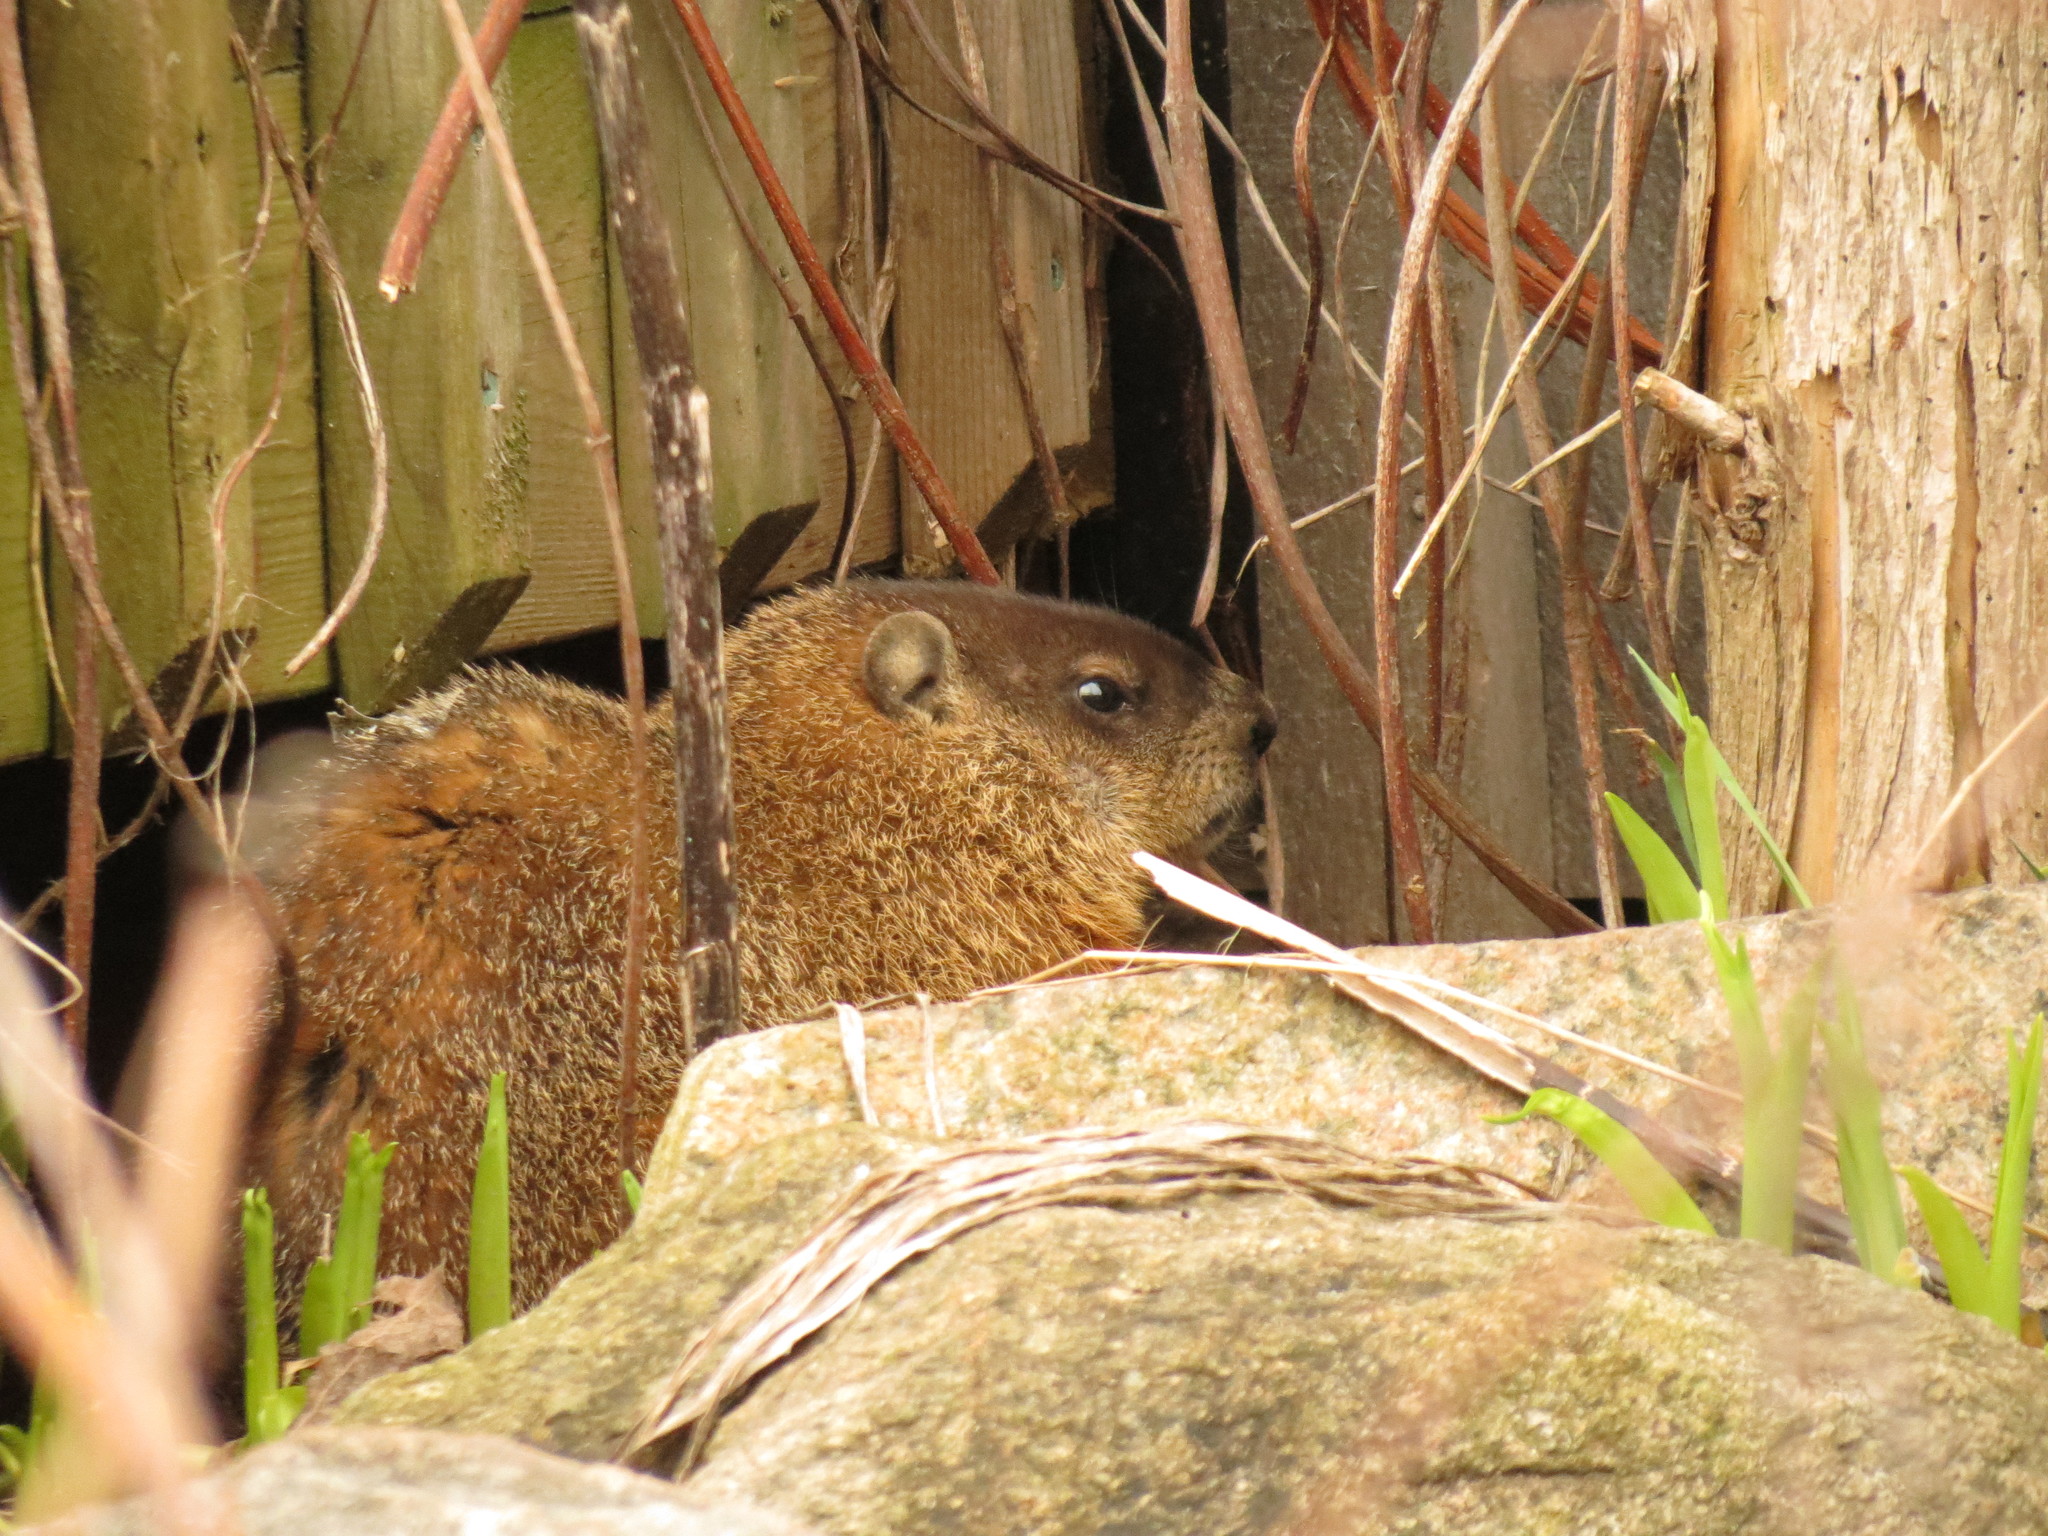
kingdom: Animalia
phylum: Chordata
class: Mammalia
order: Rodentia
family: Sciuridae
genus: Marmota
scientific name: Marmota monax
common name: Groundhog
